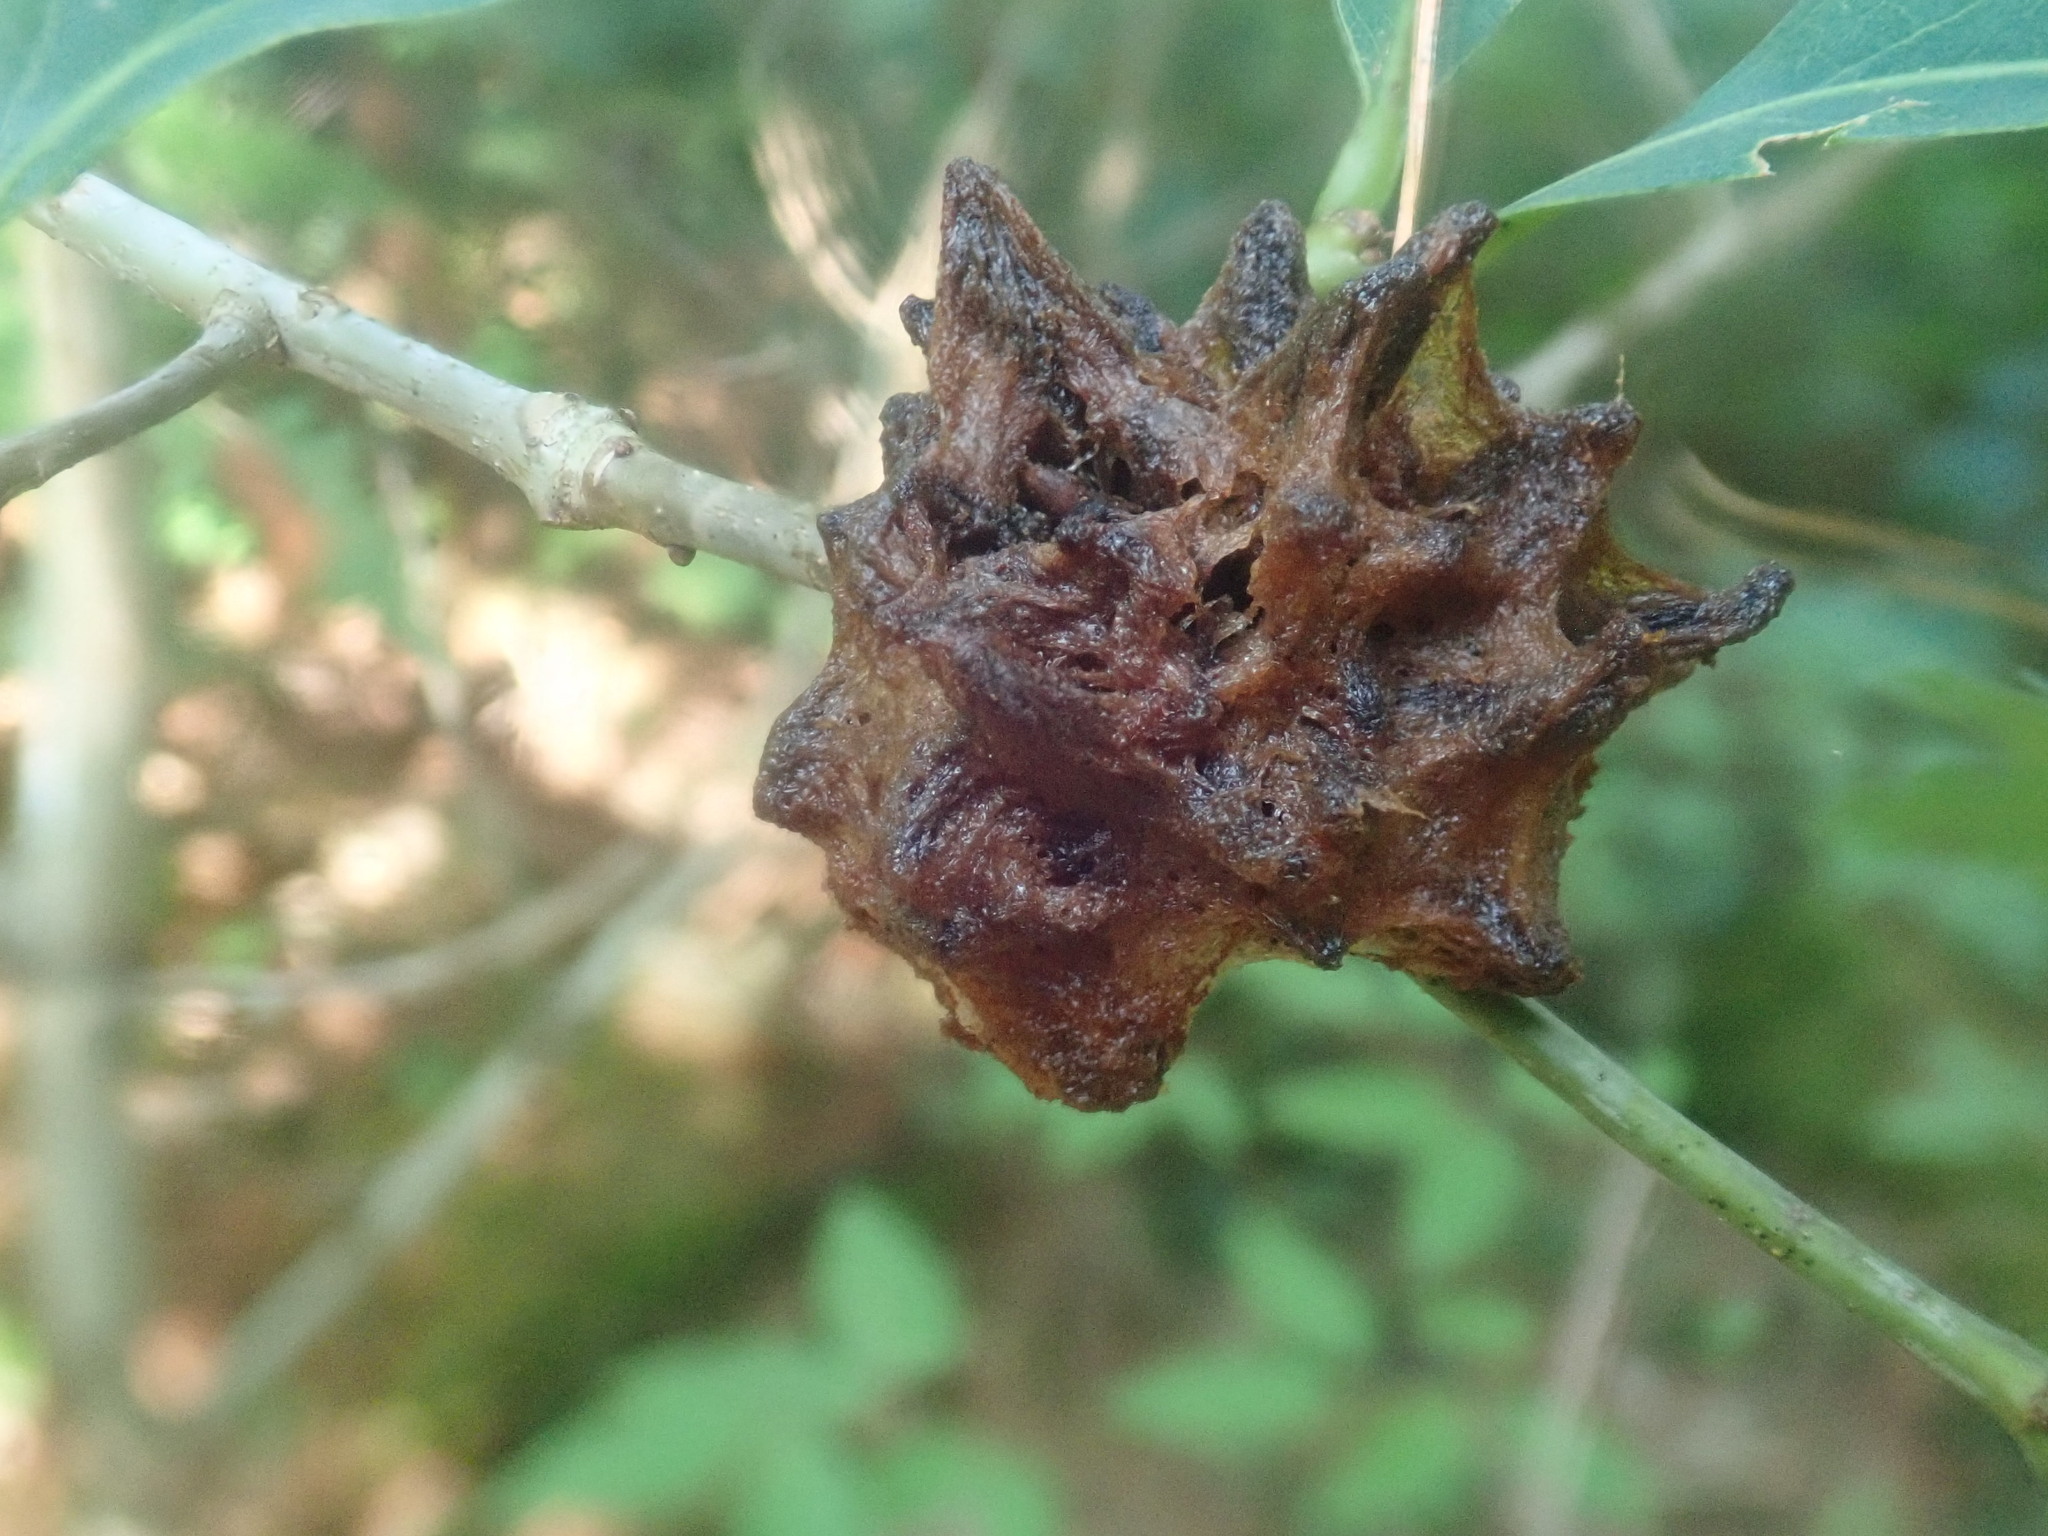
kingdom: Animalia
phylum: Arthropoda
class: Insecta
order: Hymenoptera
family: Cynipidae
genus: Callirhytis
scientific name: Callirhytis
